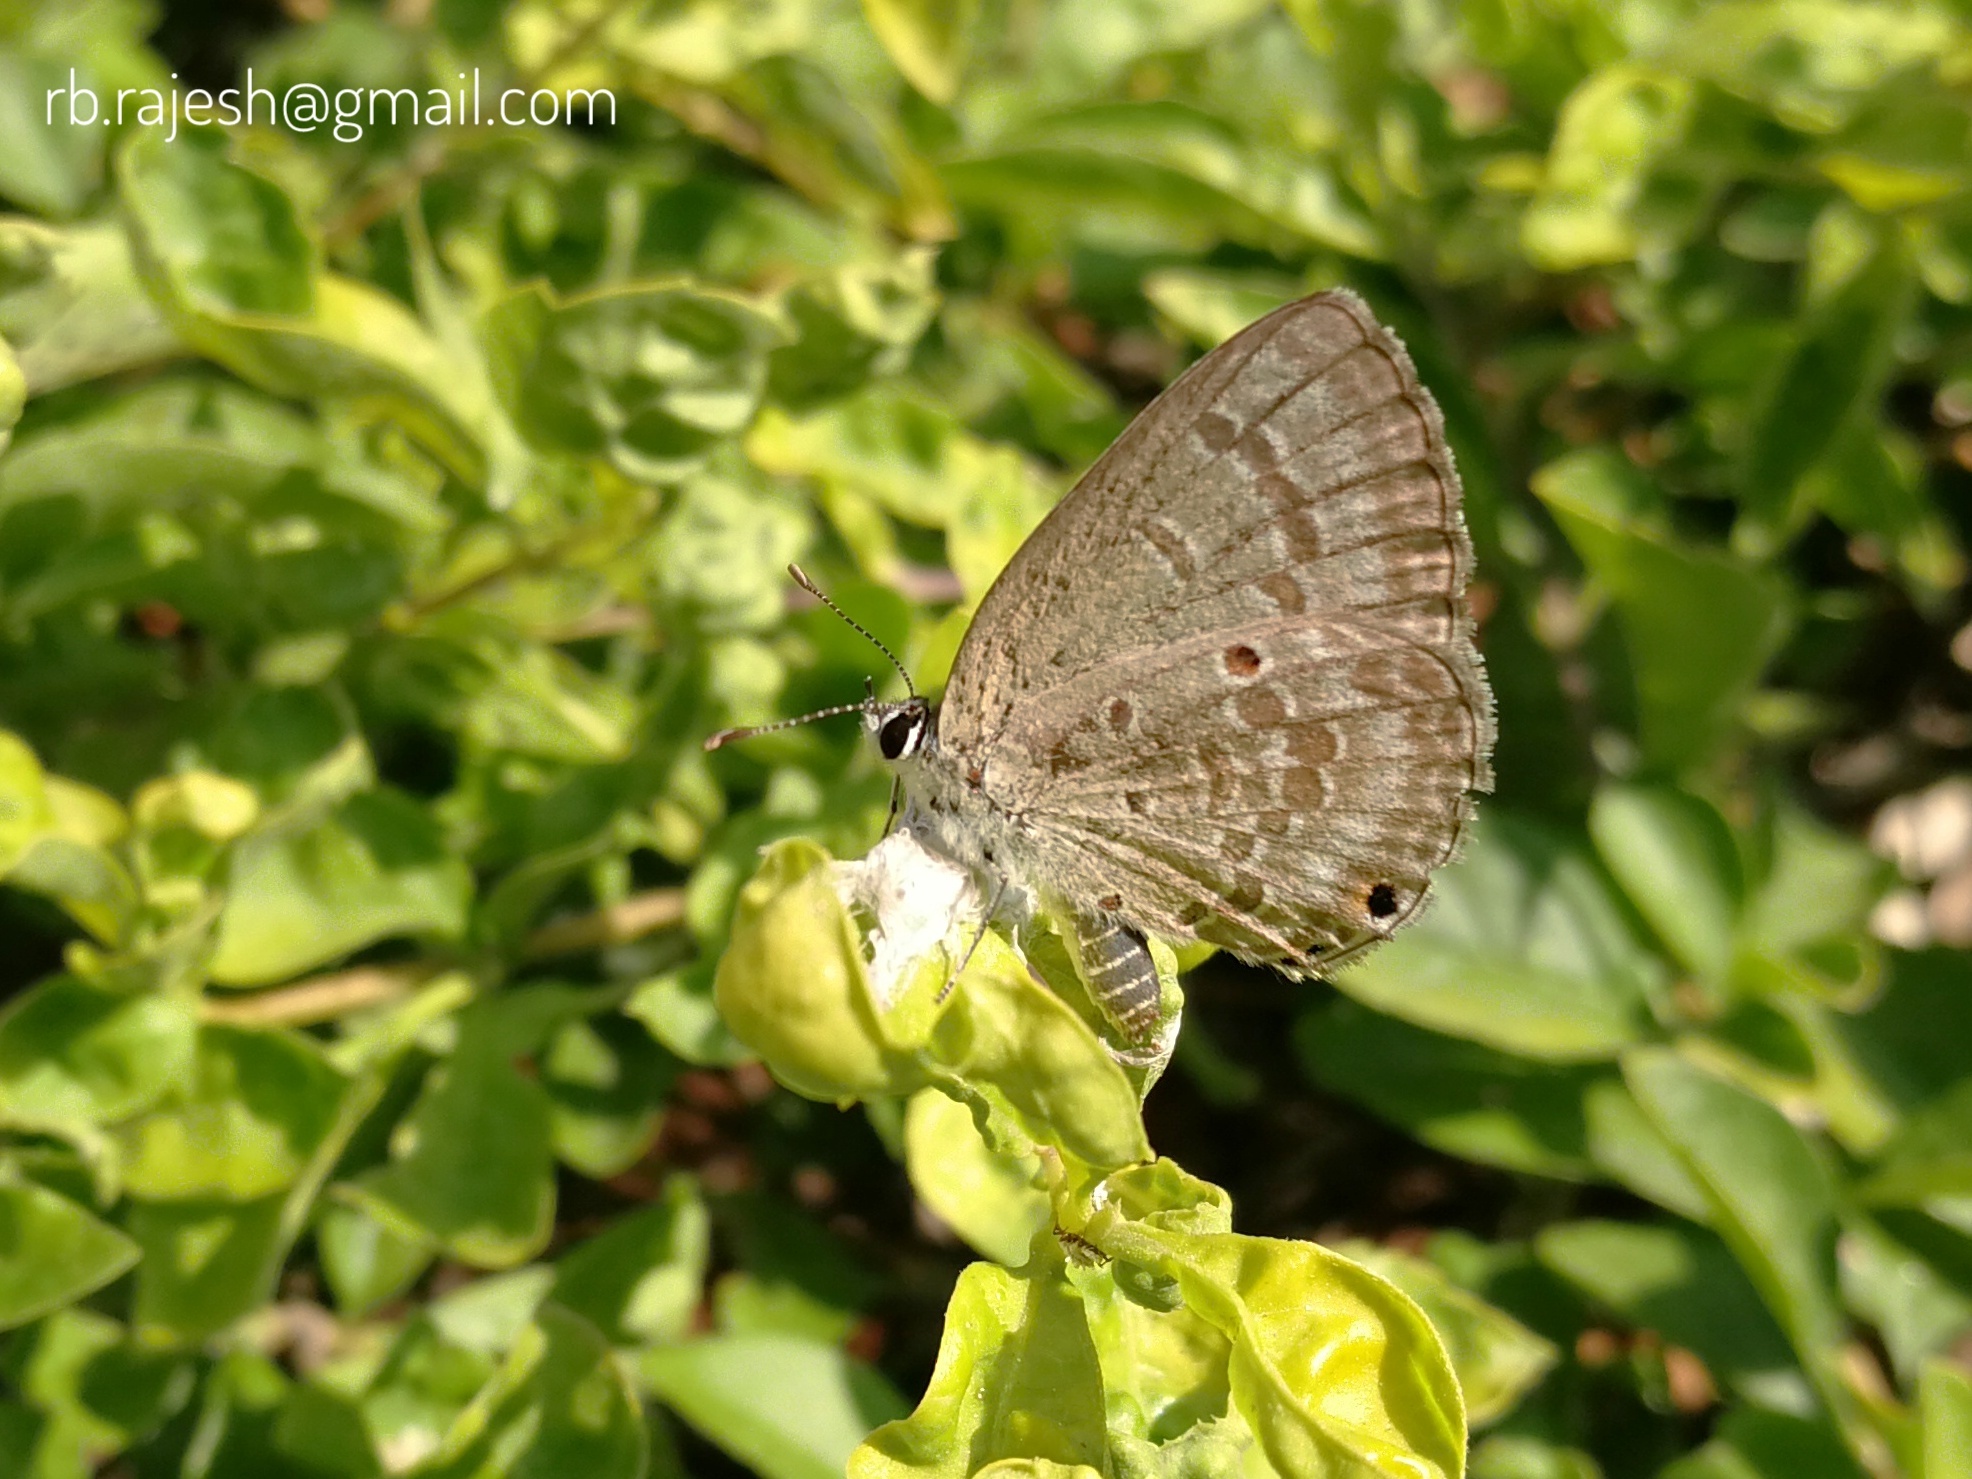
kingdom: Animalia
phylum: Arthropoda
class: Insecta
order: Lepidoptera
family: Lycaenidae
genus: Luthrodes
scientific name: Luthrodes pandava
